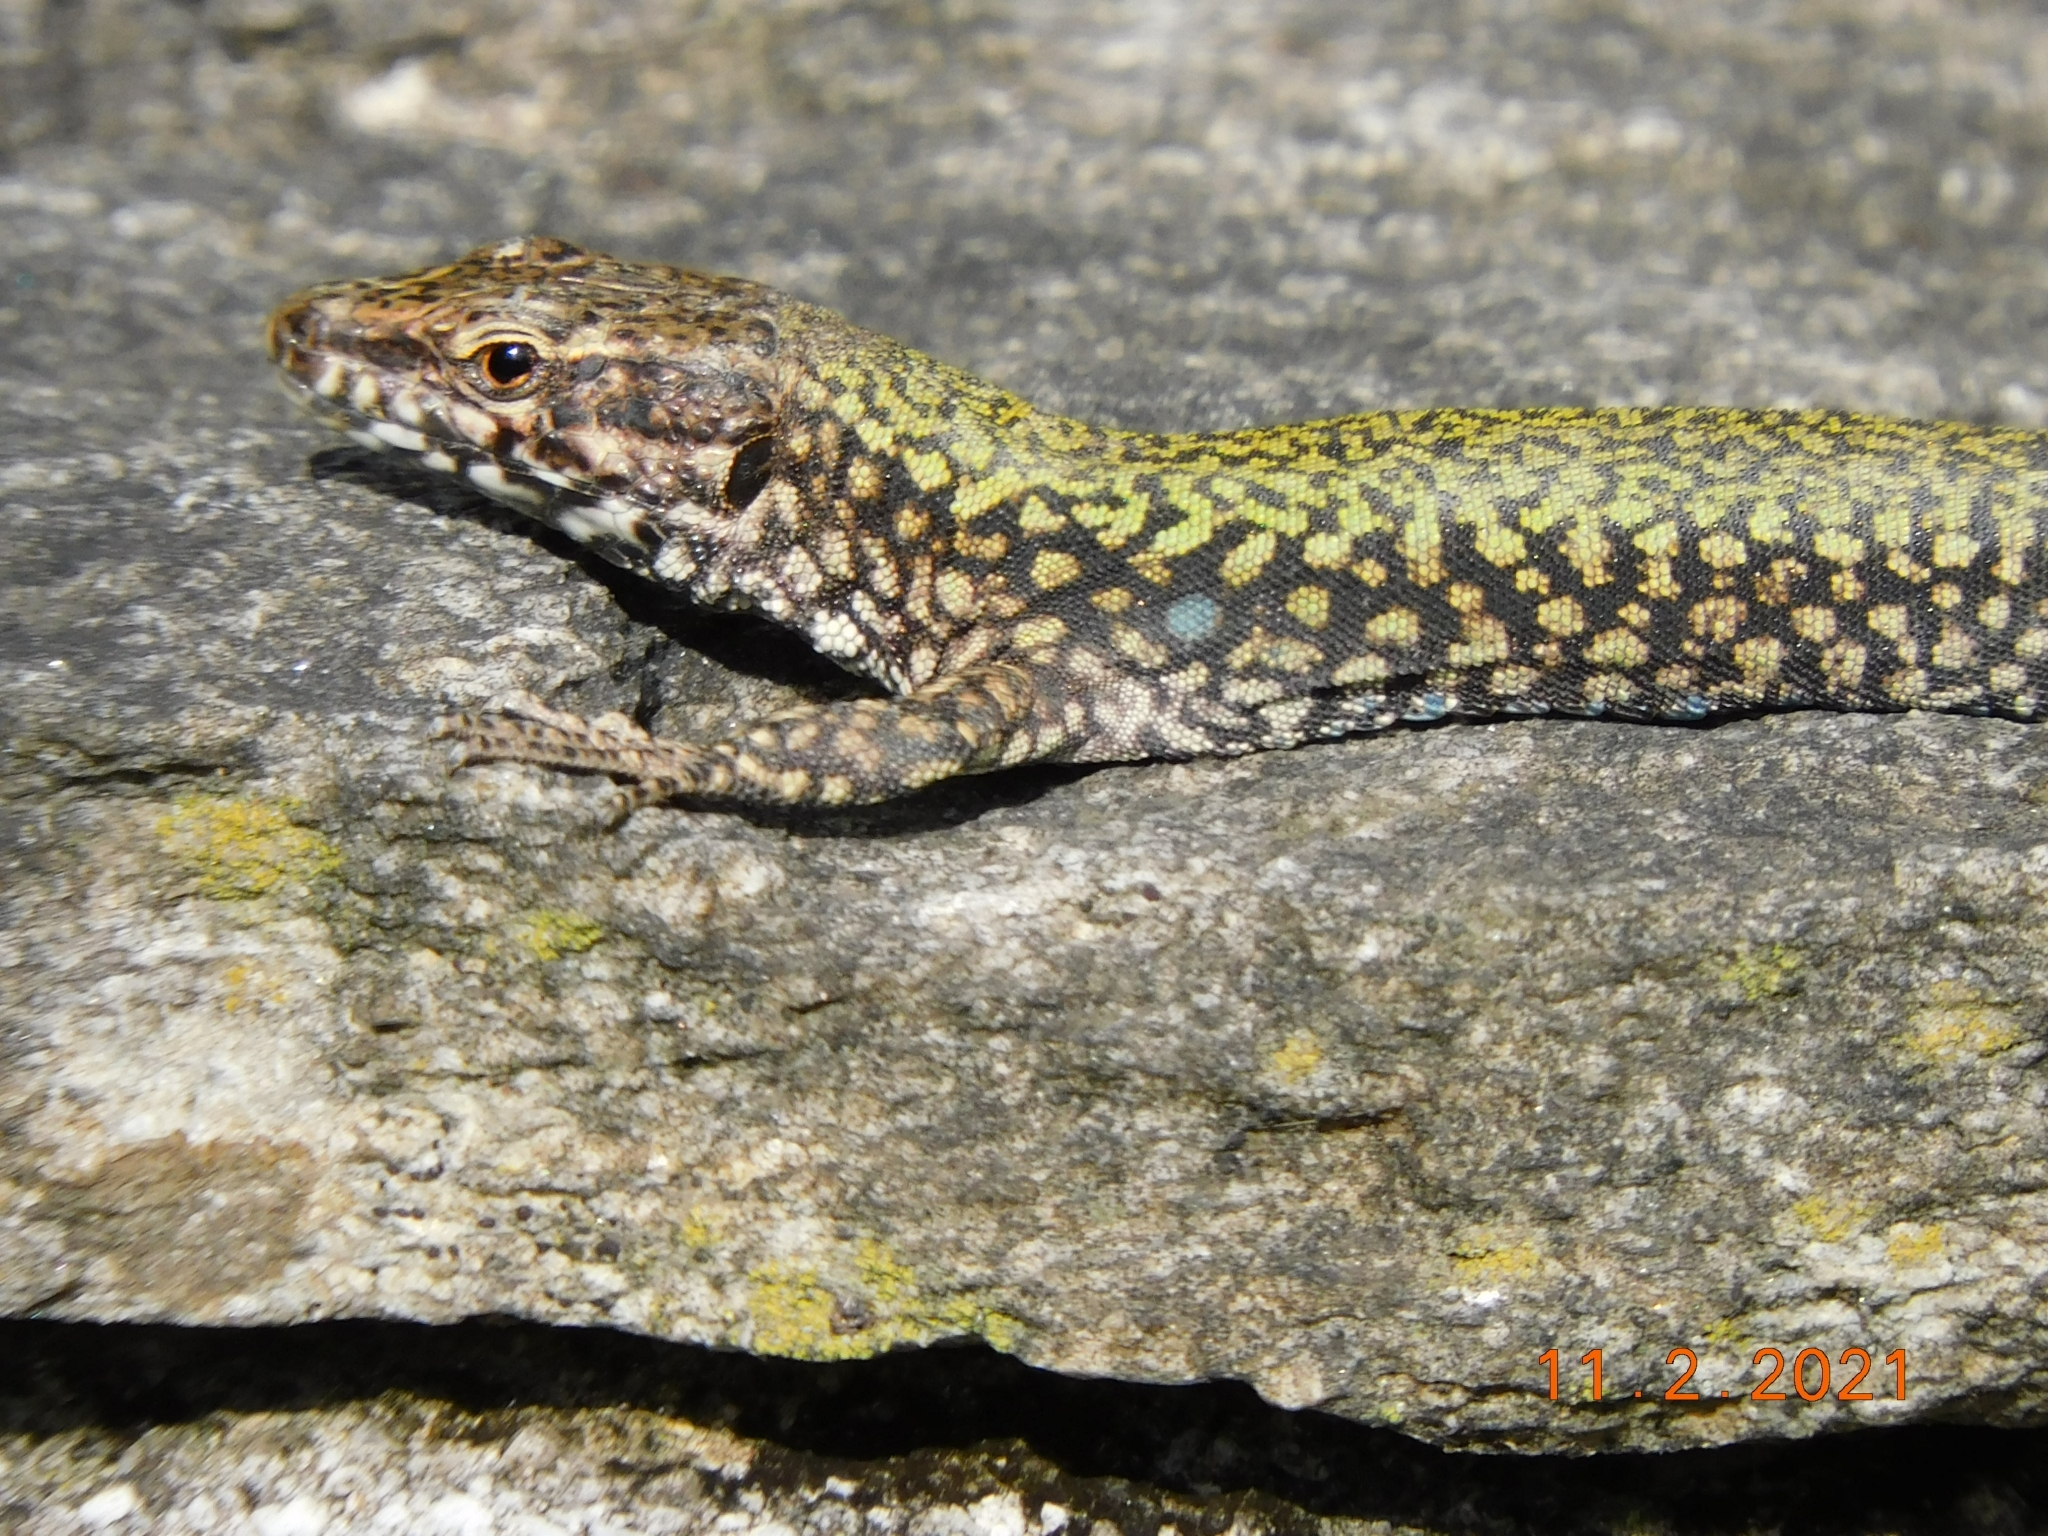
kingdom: Animalia
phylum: Chordata
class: Squamata
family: Lacertidae
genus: Podarcis
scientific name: Podarcis muralis
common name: Common wall lizard
